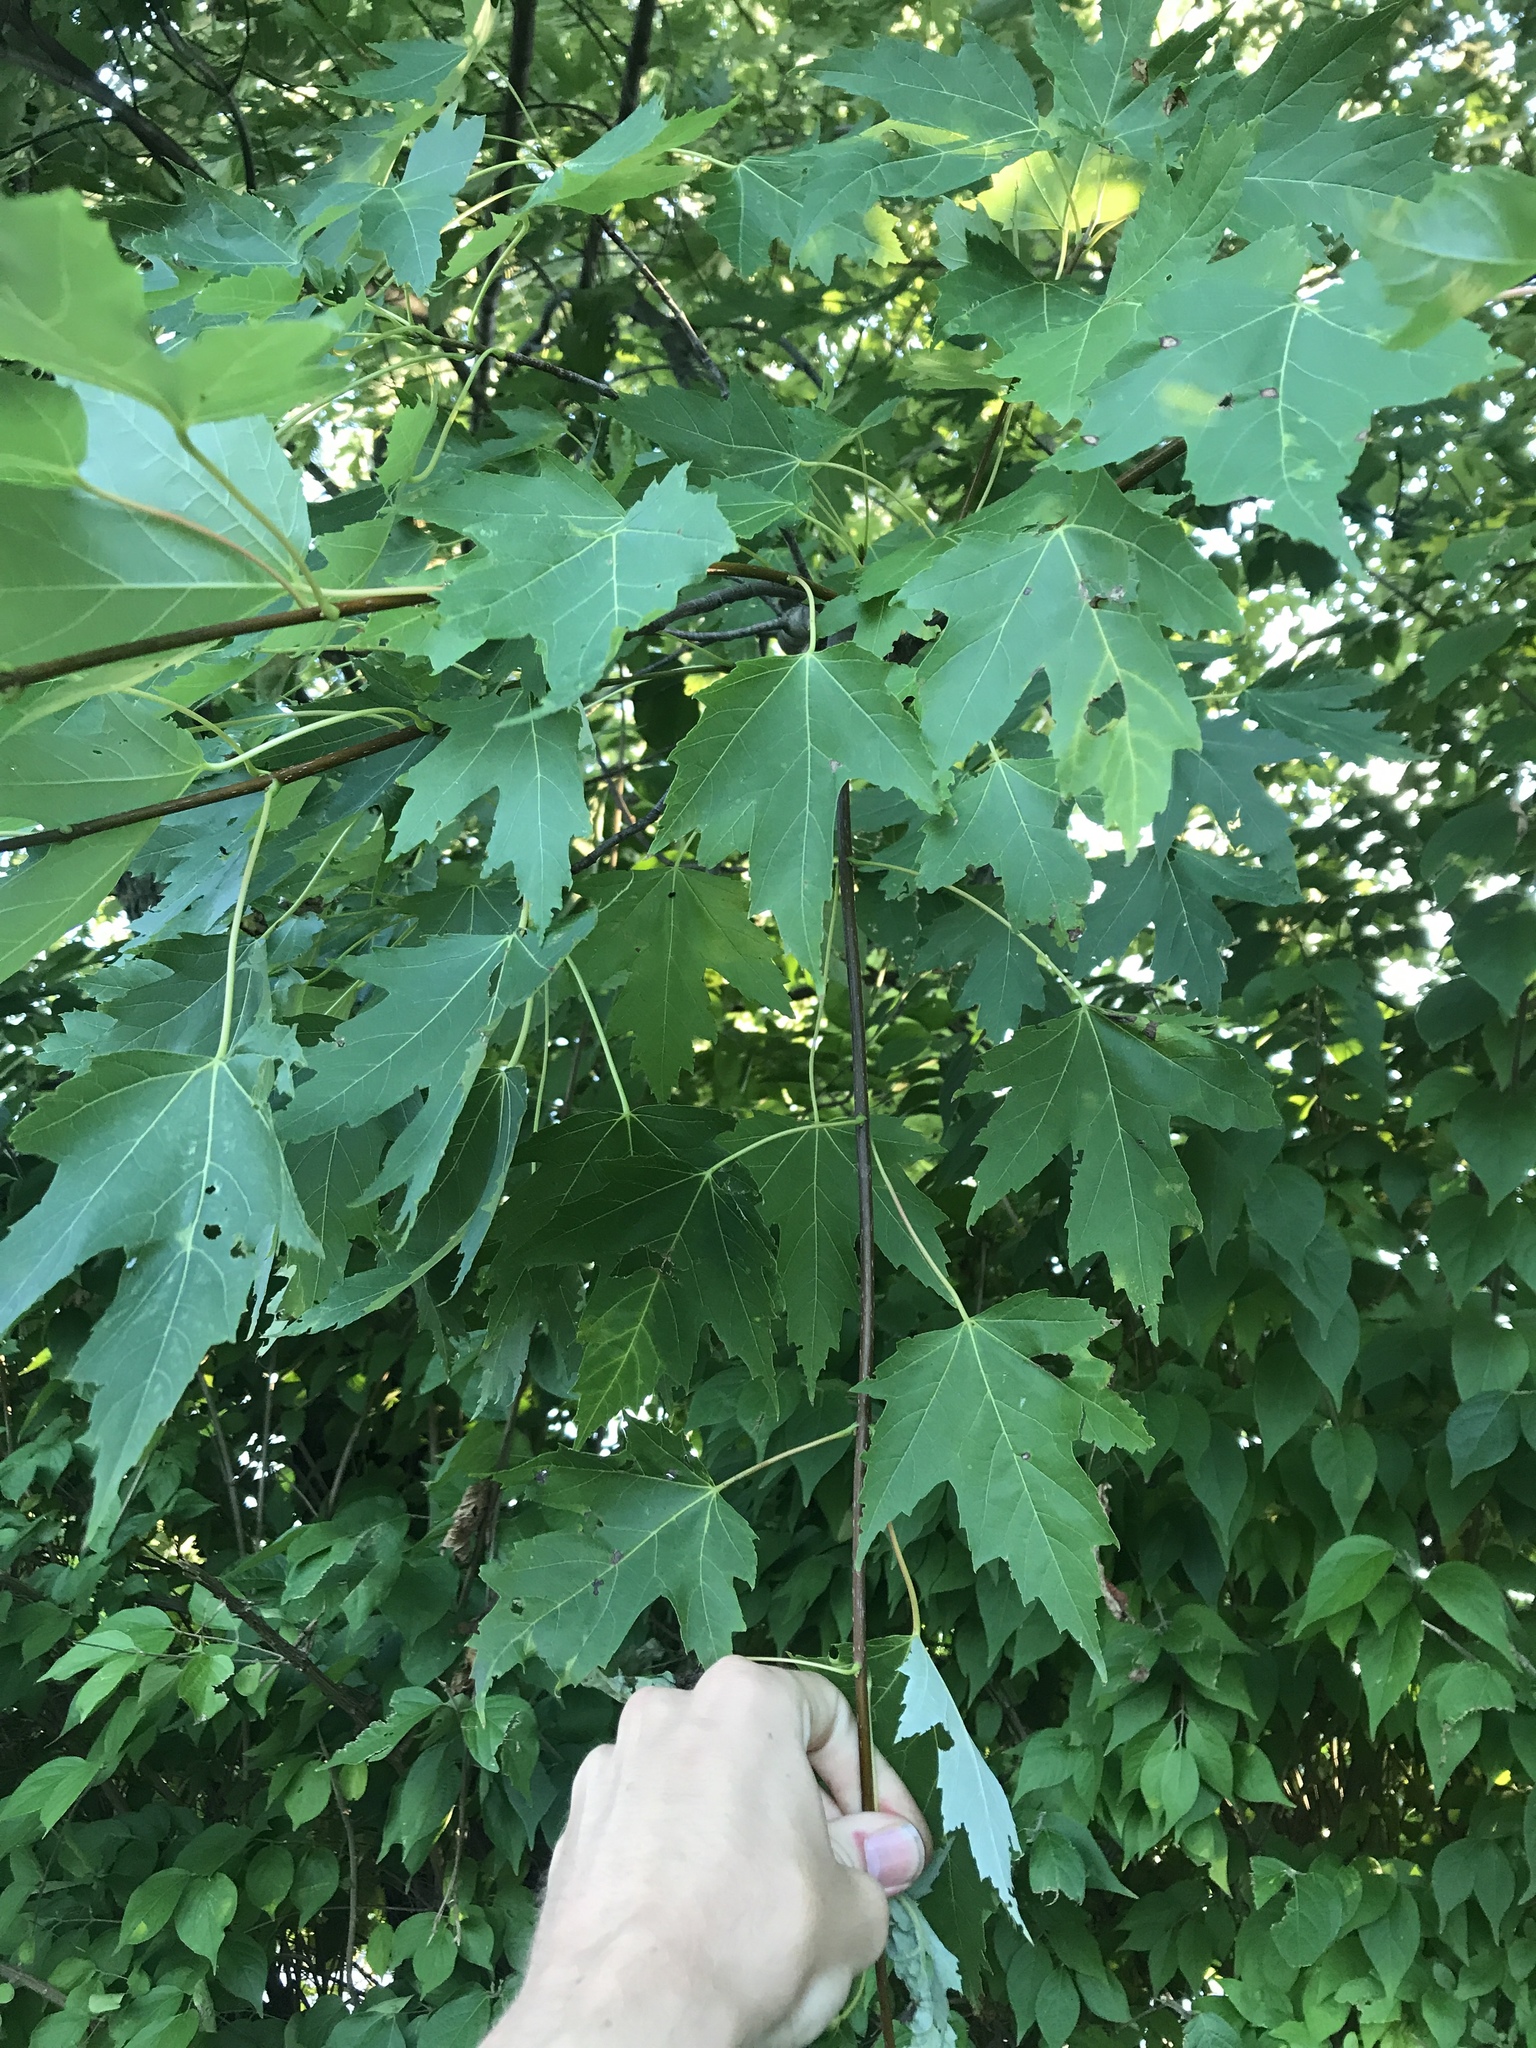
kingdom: Plantae
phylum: Tracheophyta
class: Magnoliopsida
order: Sapindales
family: Sapindaceae
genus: Acer
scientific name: Acer saccharinum
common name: Silver maple
